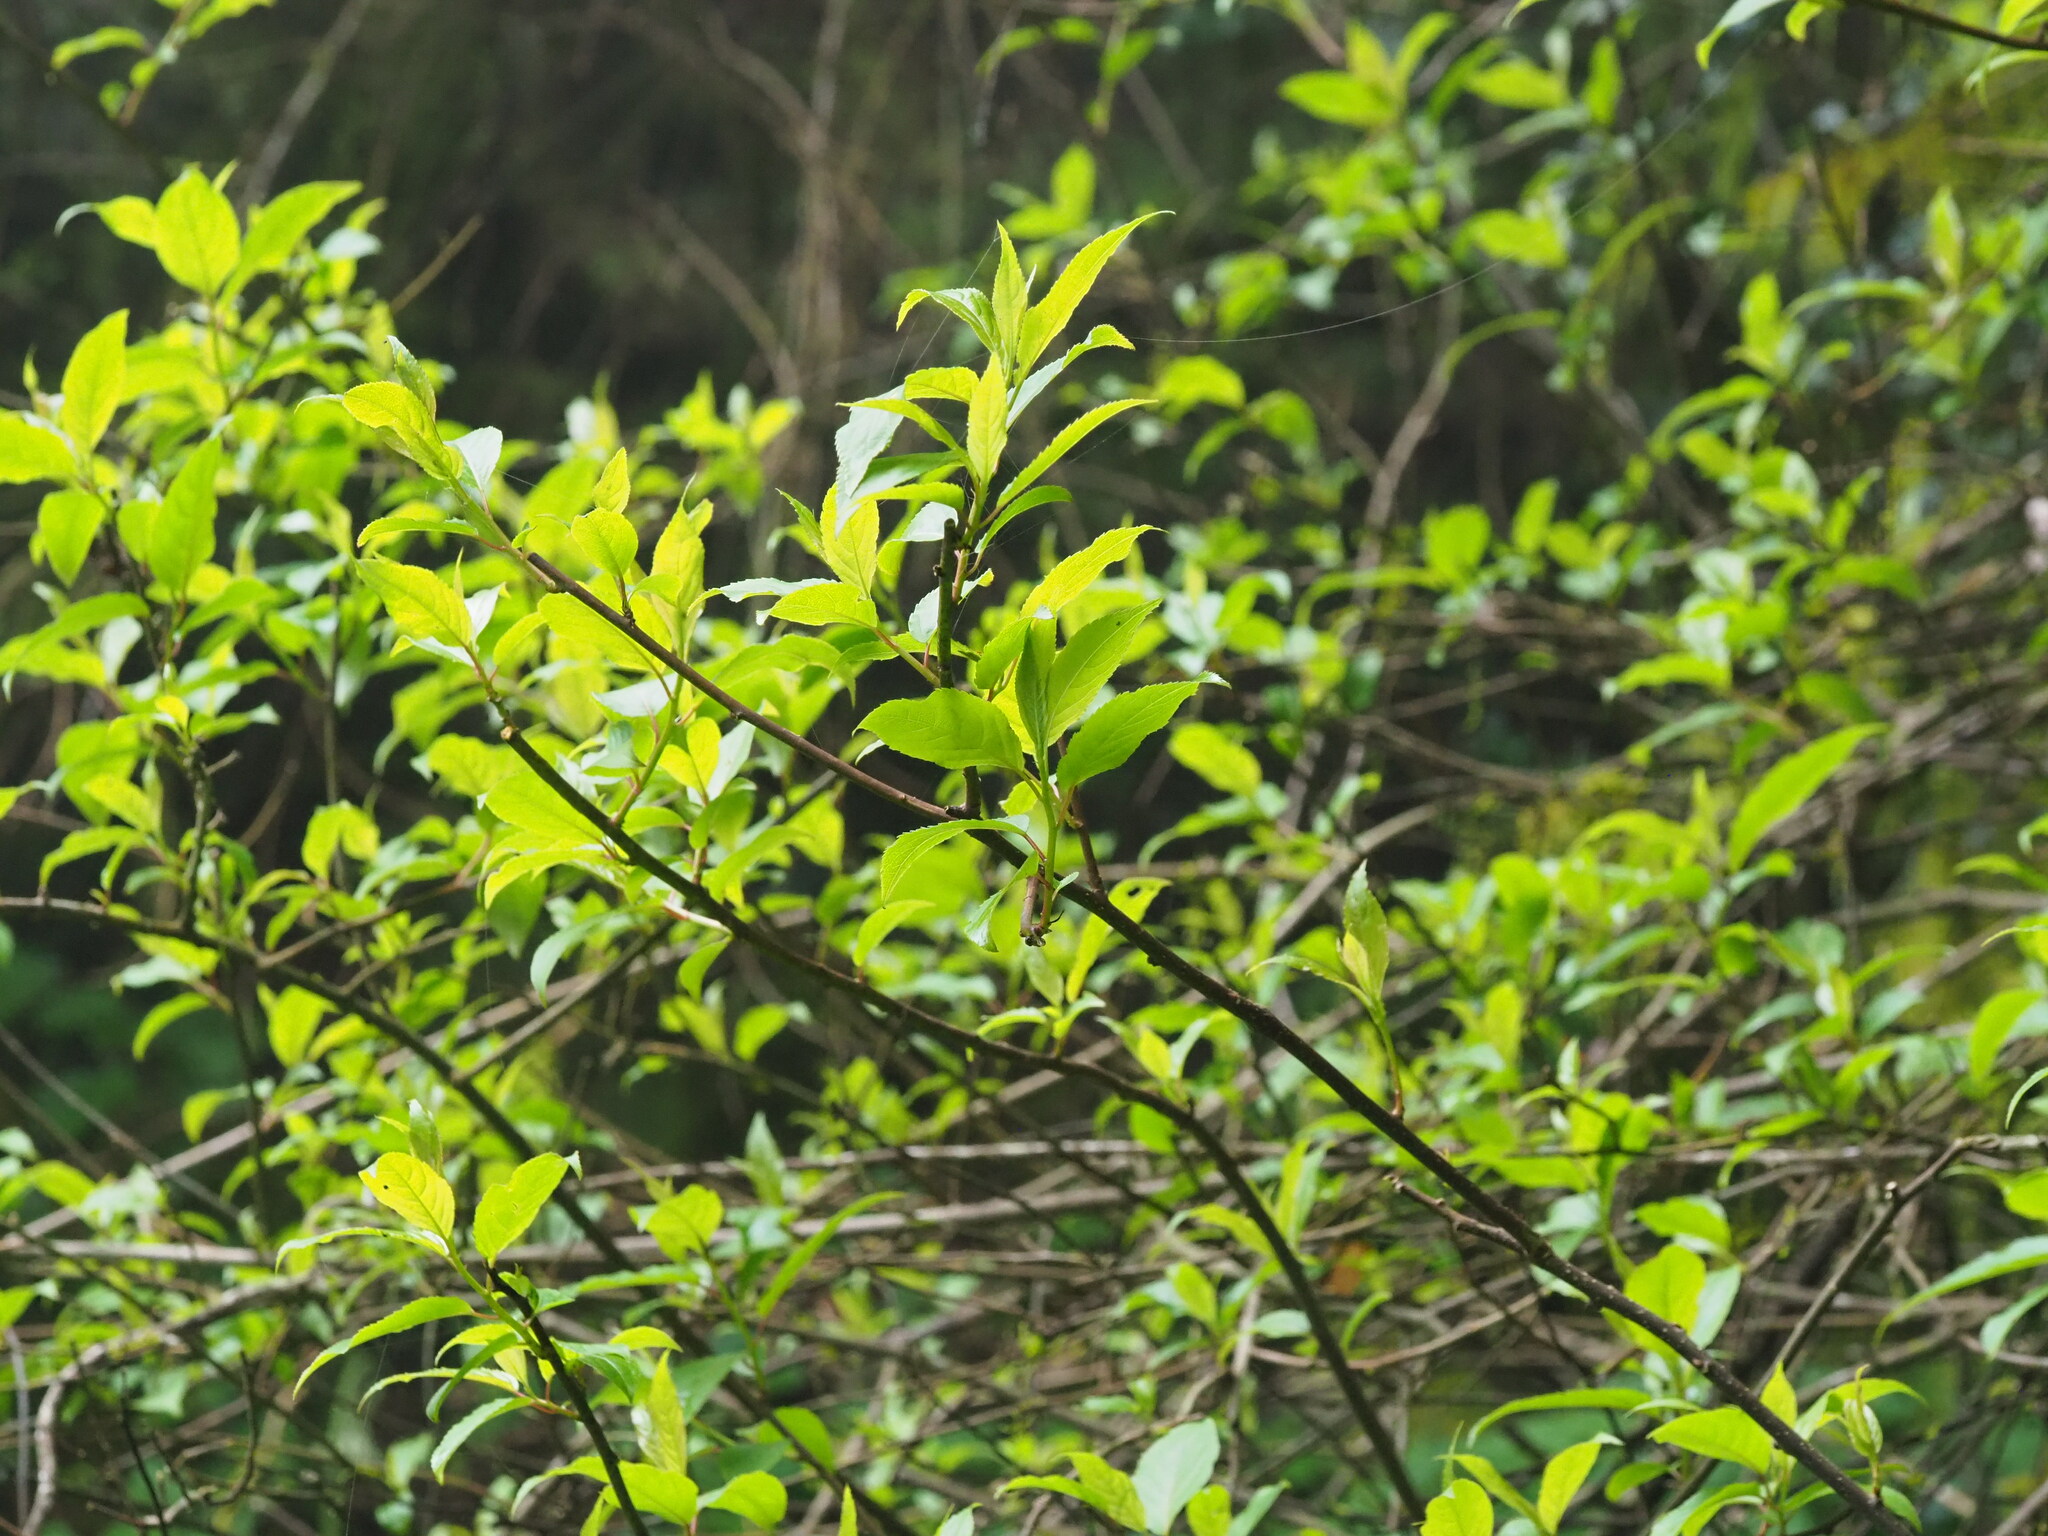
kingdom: Plantae
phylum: Tracheophyta
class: Magnoliopsida
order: Crossosomatales
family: Stachyuraceae
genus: Stachyurus
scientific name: Stachyurus himalaicus
